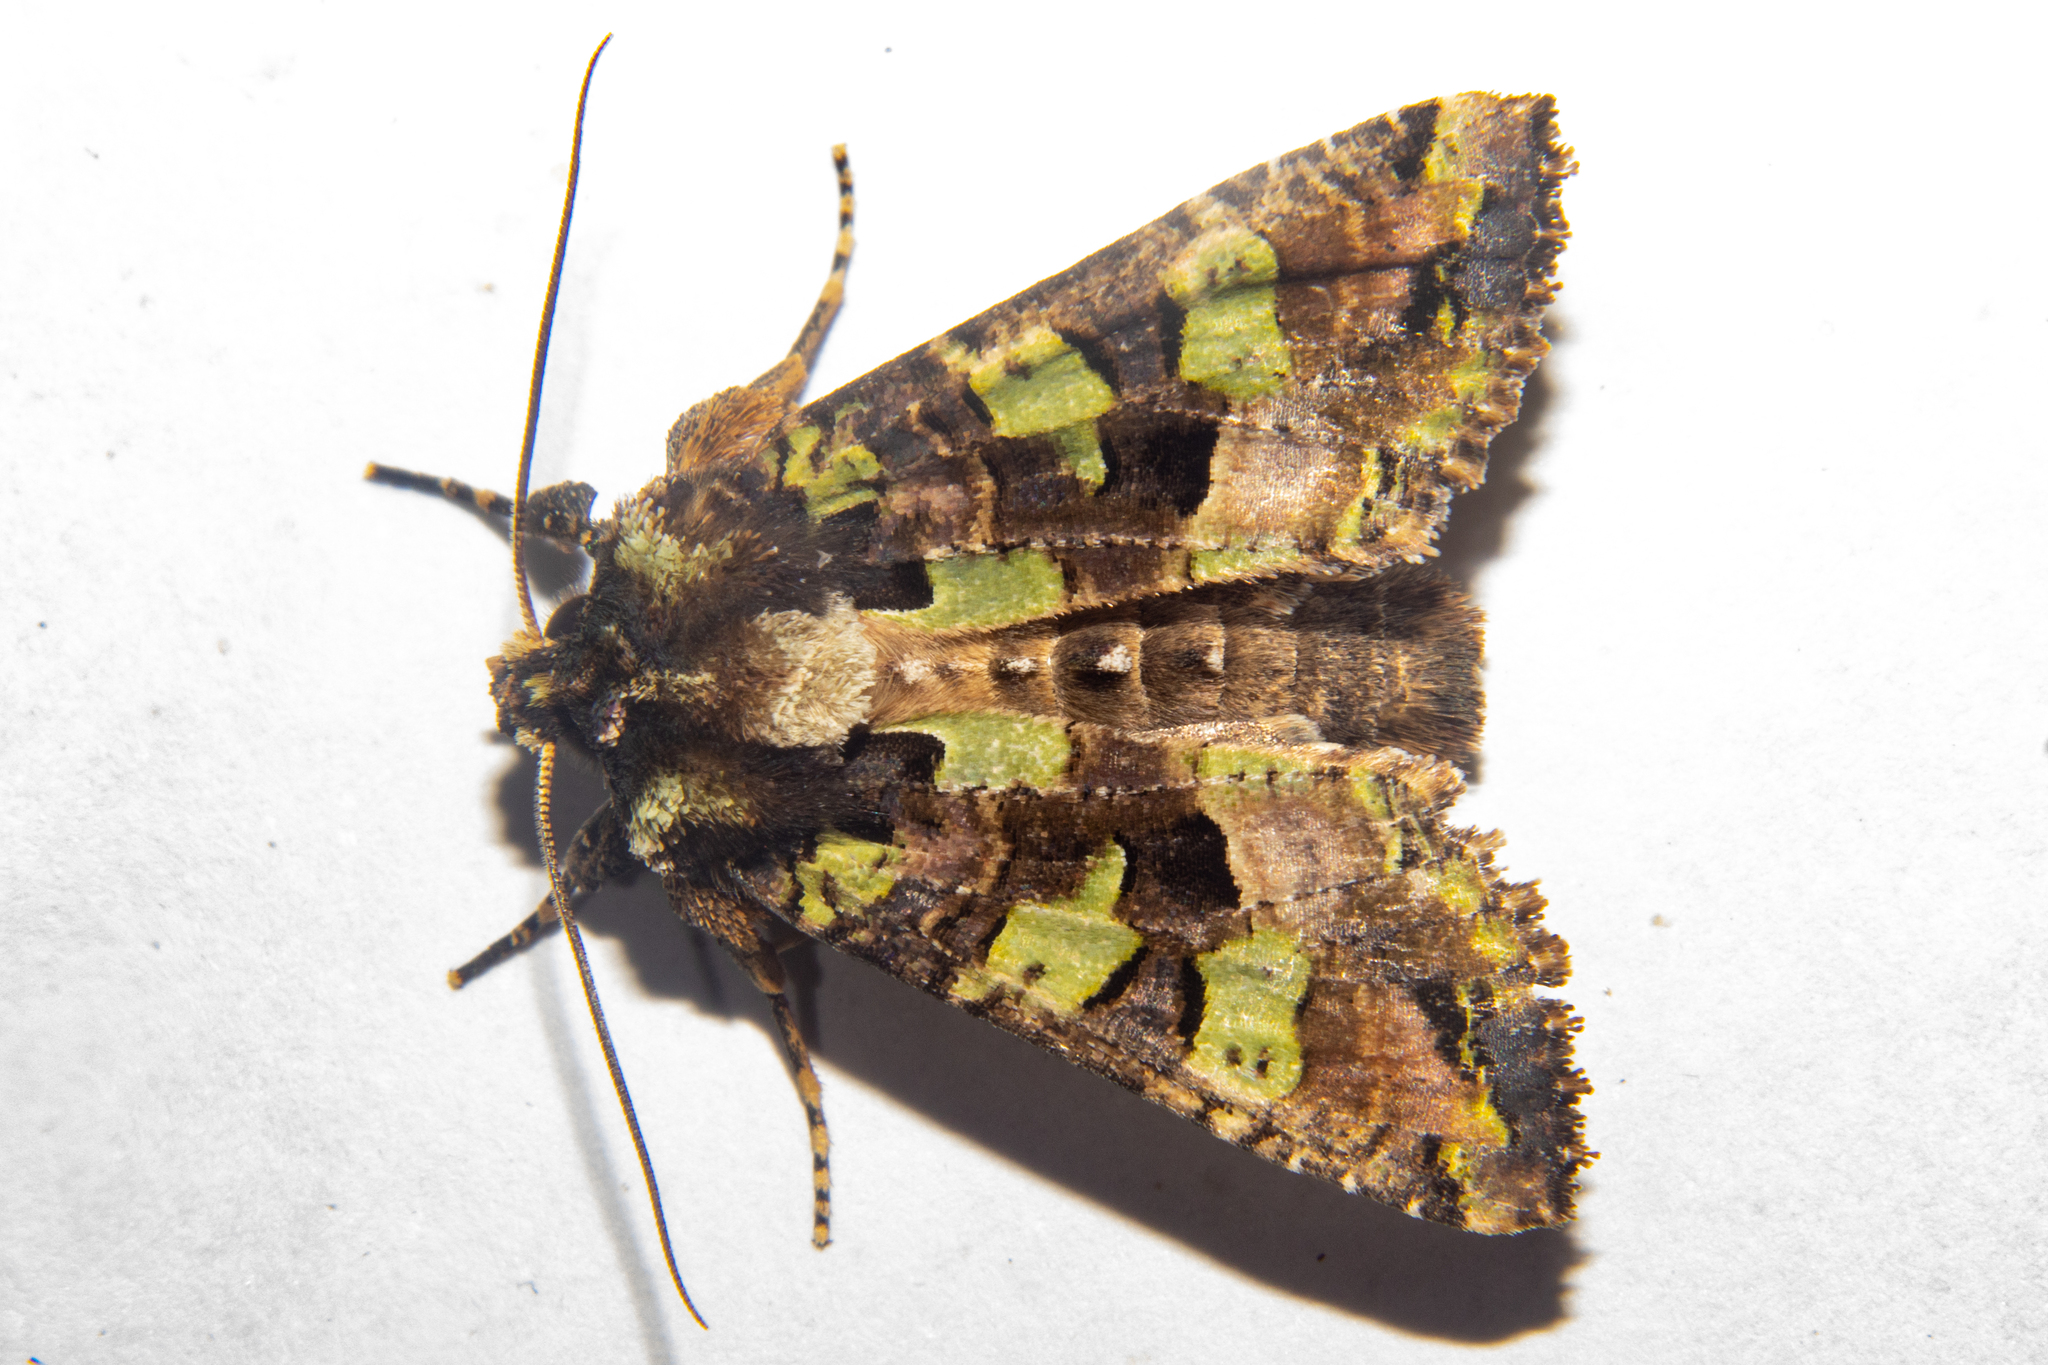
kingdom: Animalia
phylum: Arthropoda
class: Insecta
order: Lepidoptera
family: Noctuidae
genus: Meterana
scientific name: Meterana pauca
